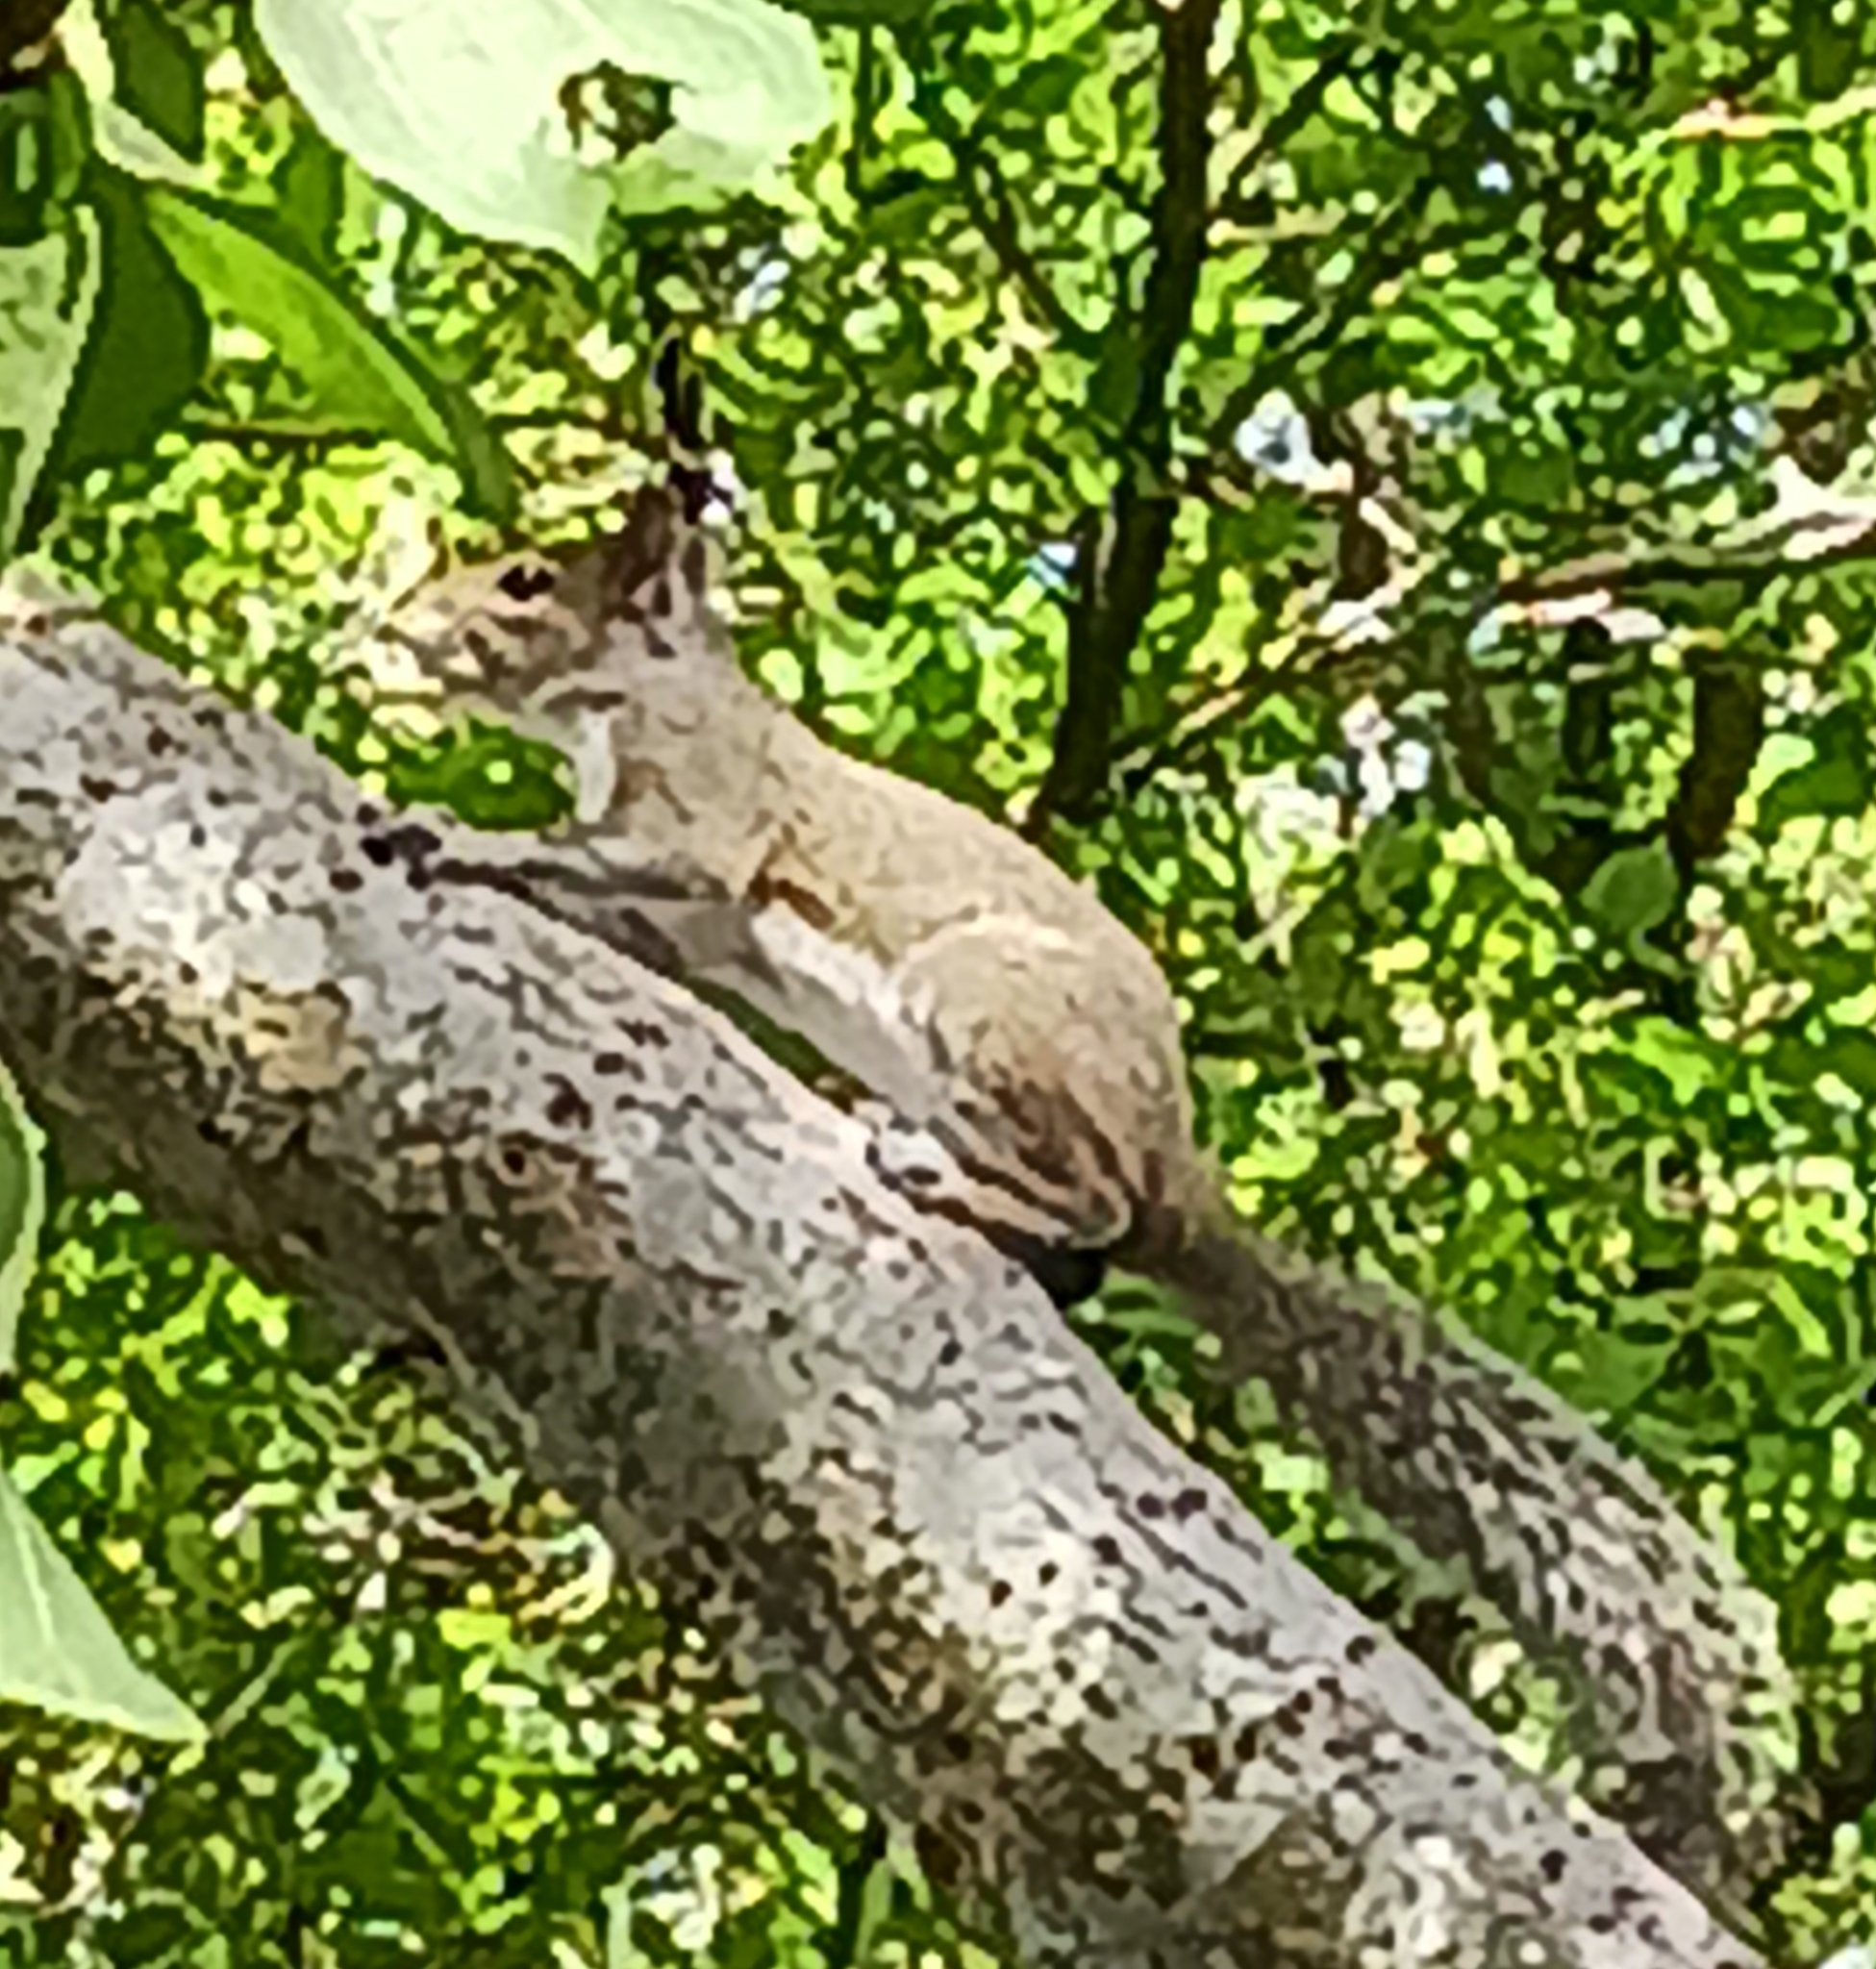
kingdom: Animalia
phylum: Chordata
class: Mammalia
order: Rodentia
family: Sciuridae
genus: Sciurus
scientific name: Sciurus carolinensis
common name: Eastern gray squirrel
